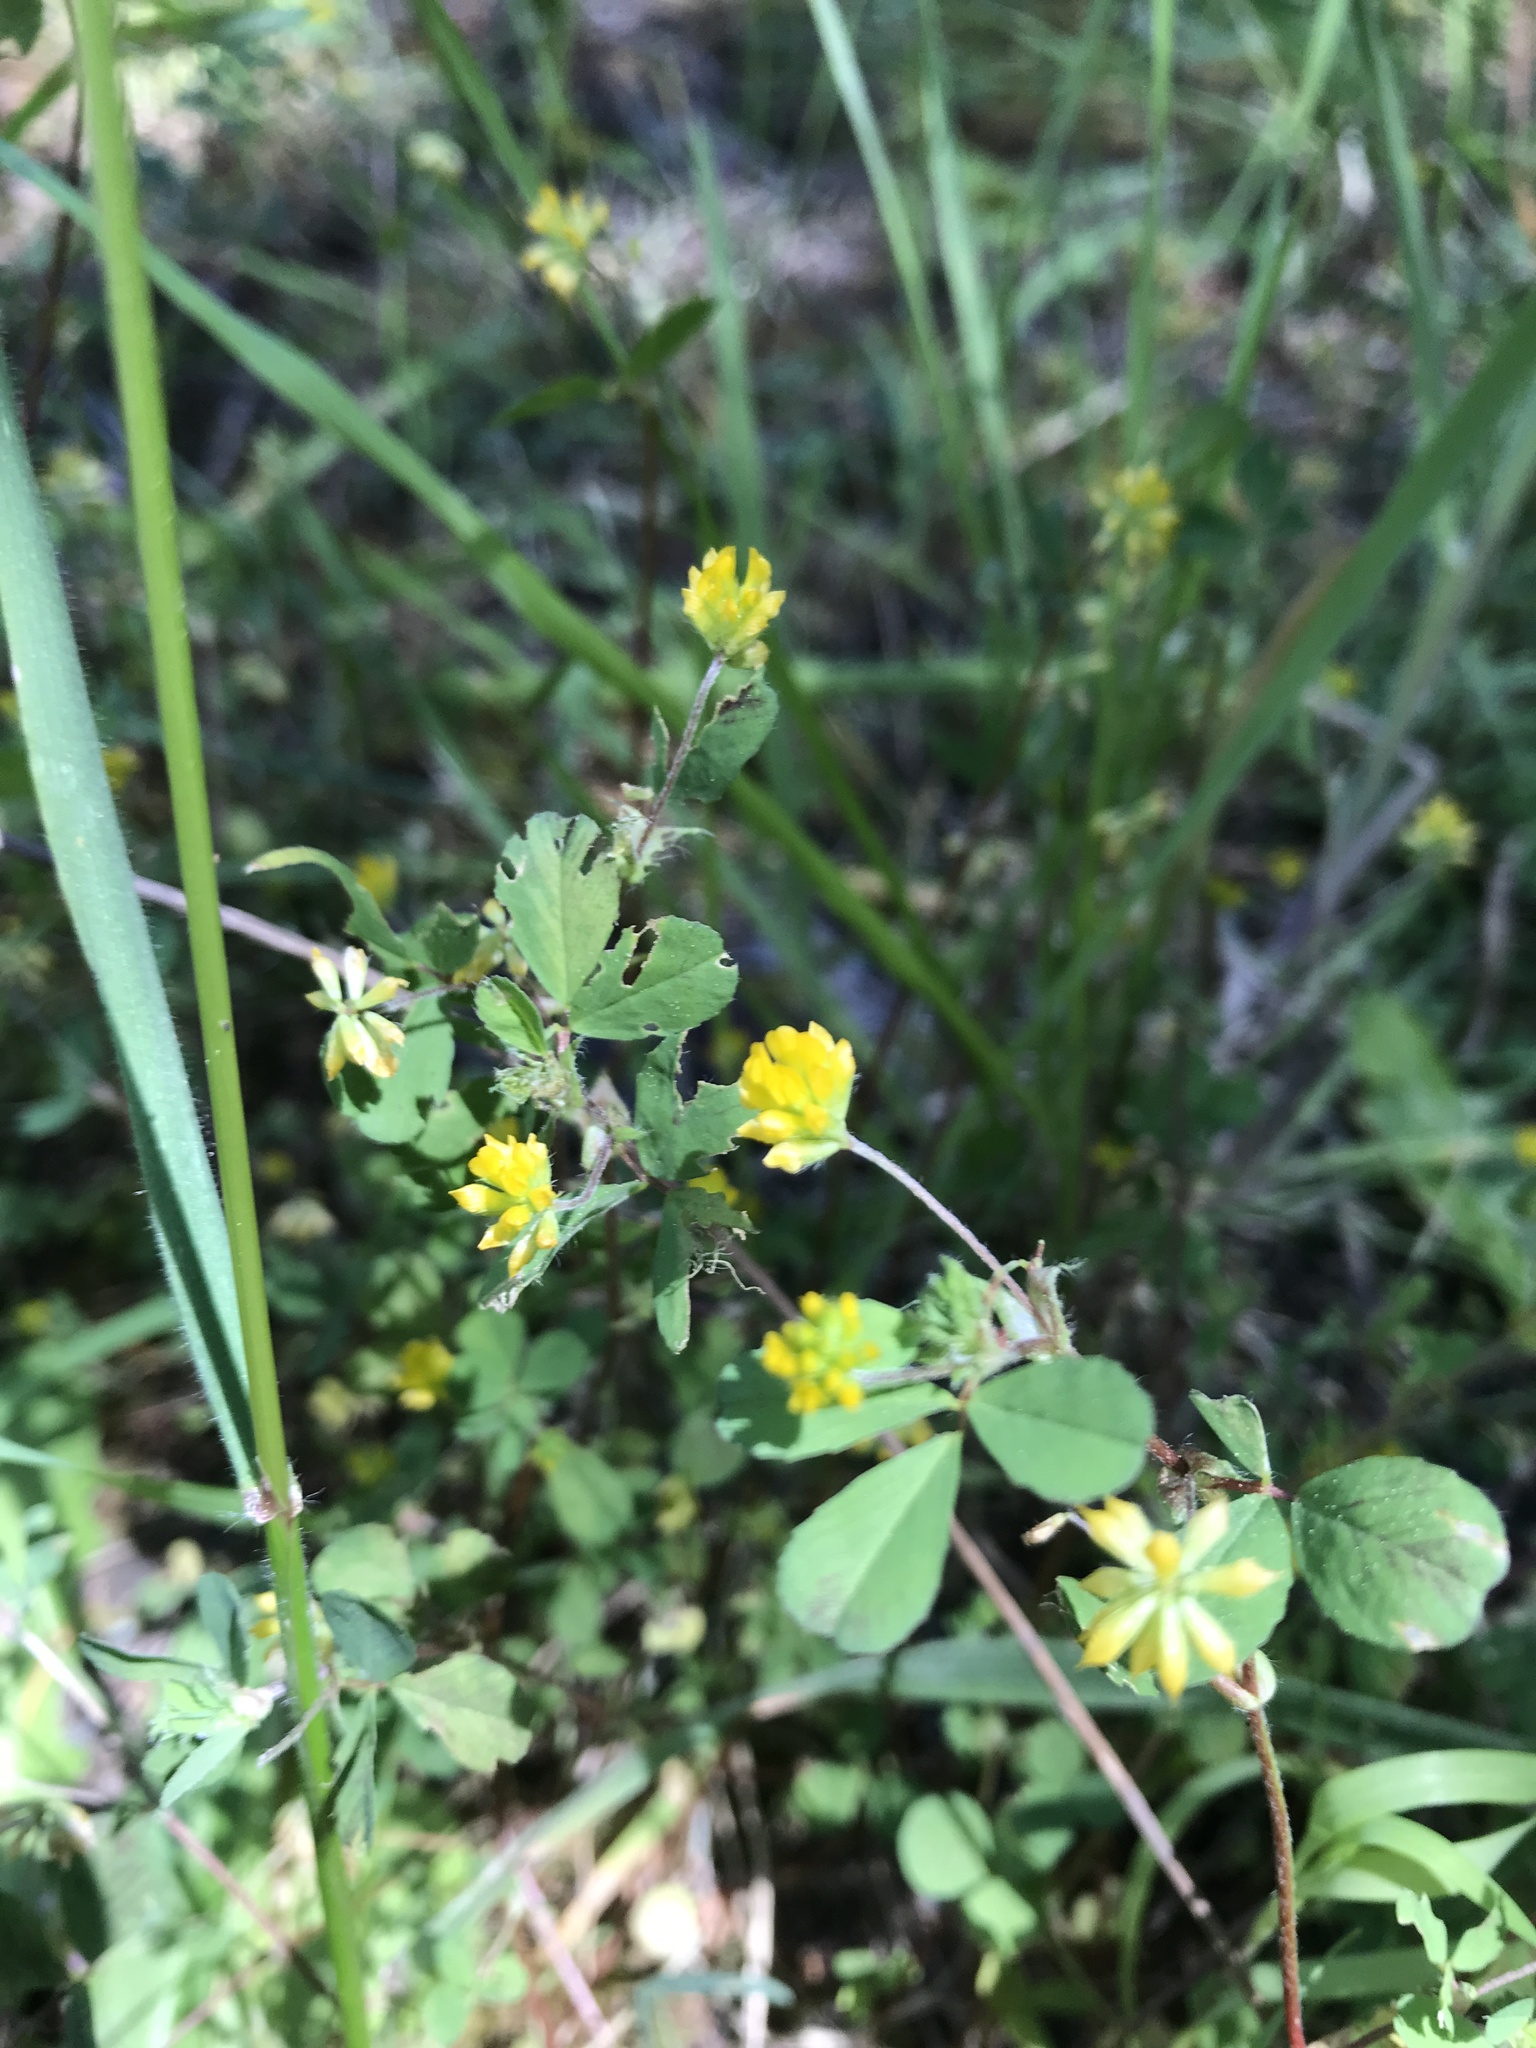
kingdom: Plantae
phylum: Tracheophyta
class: Magnoliopsida
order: Fabales
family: Fabaceae
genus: Trifolium
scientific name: Trifolium dubium
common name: Suckling clover
